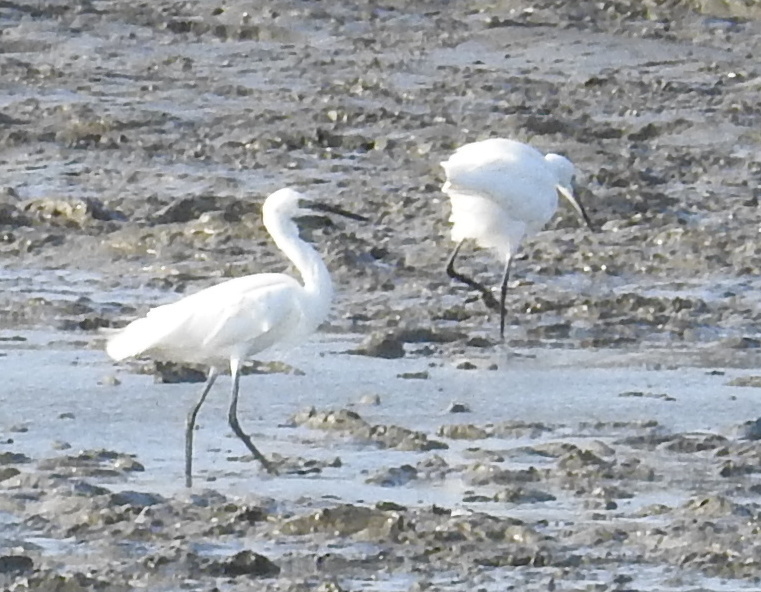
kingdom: Animalia
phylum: Chordata
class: Aves
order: Pelecaniformes
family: Ardeidae
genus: Egretta
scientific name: Egretta garzetta
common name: Little egret
